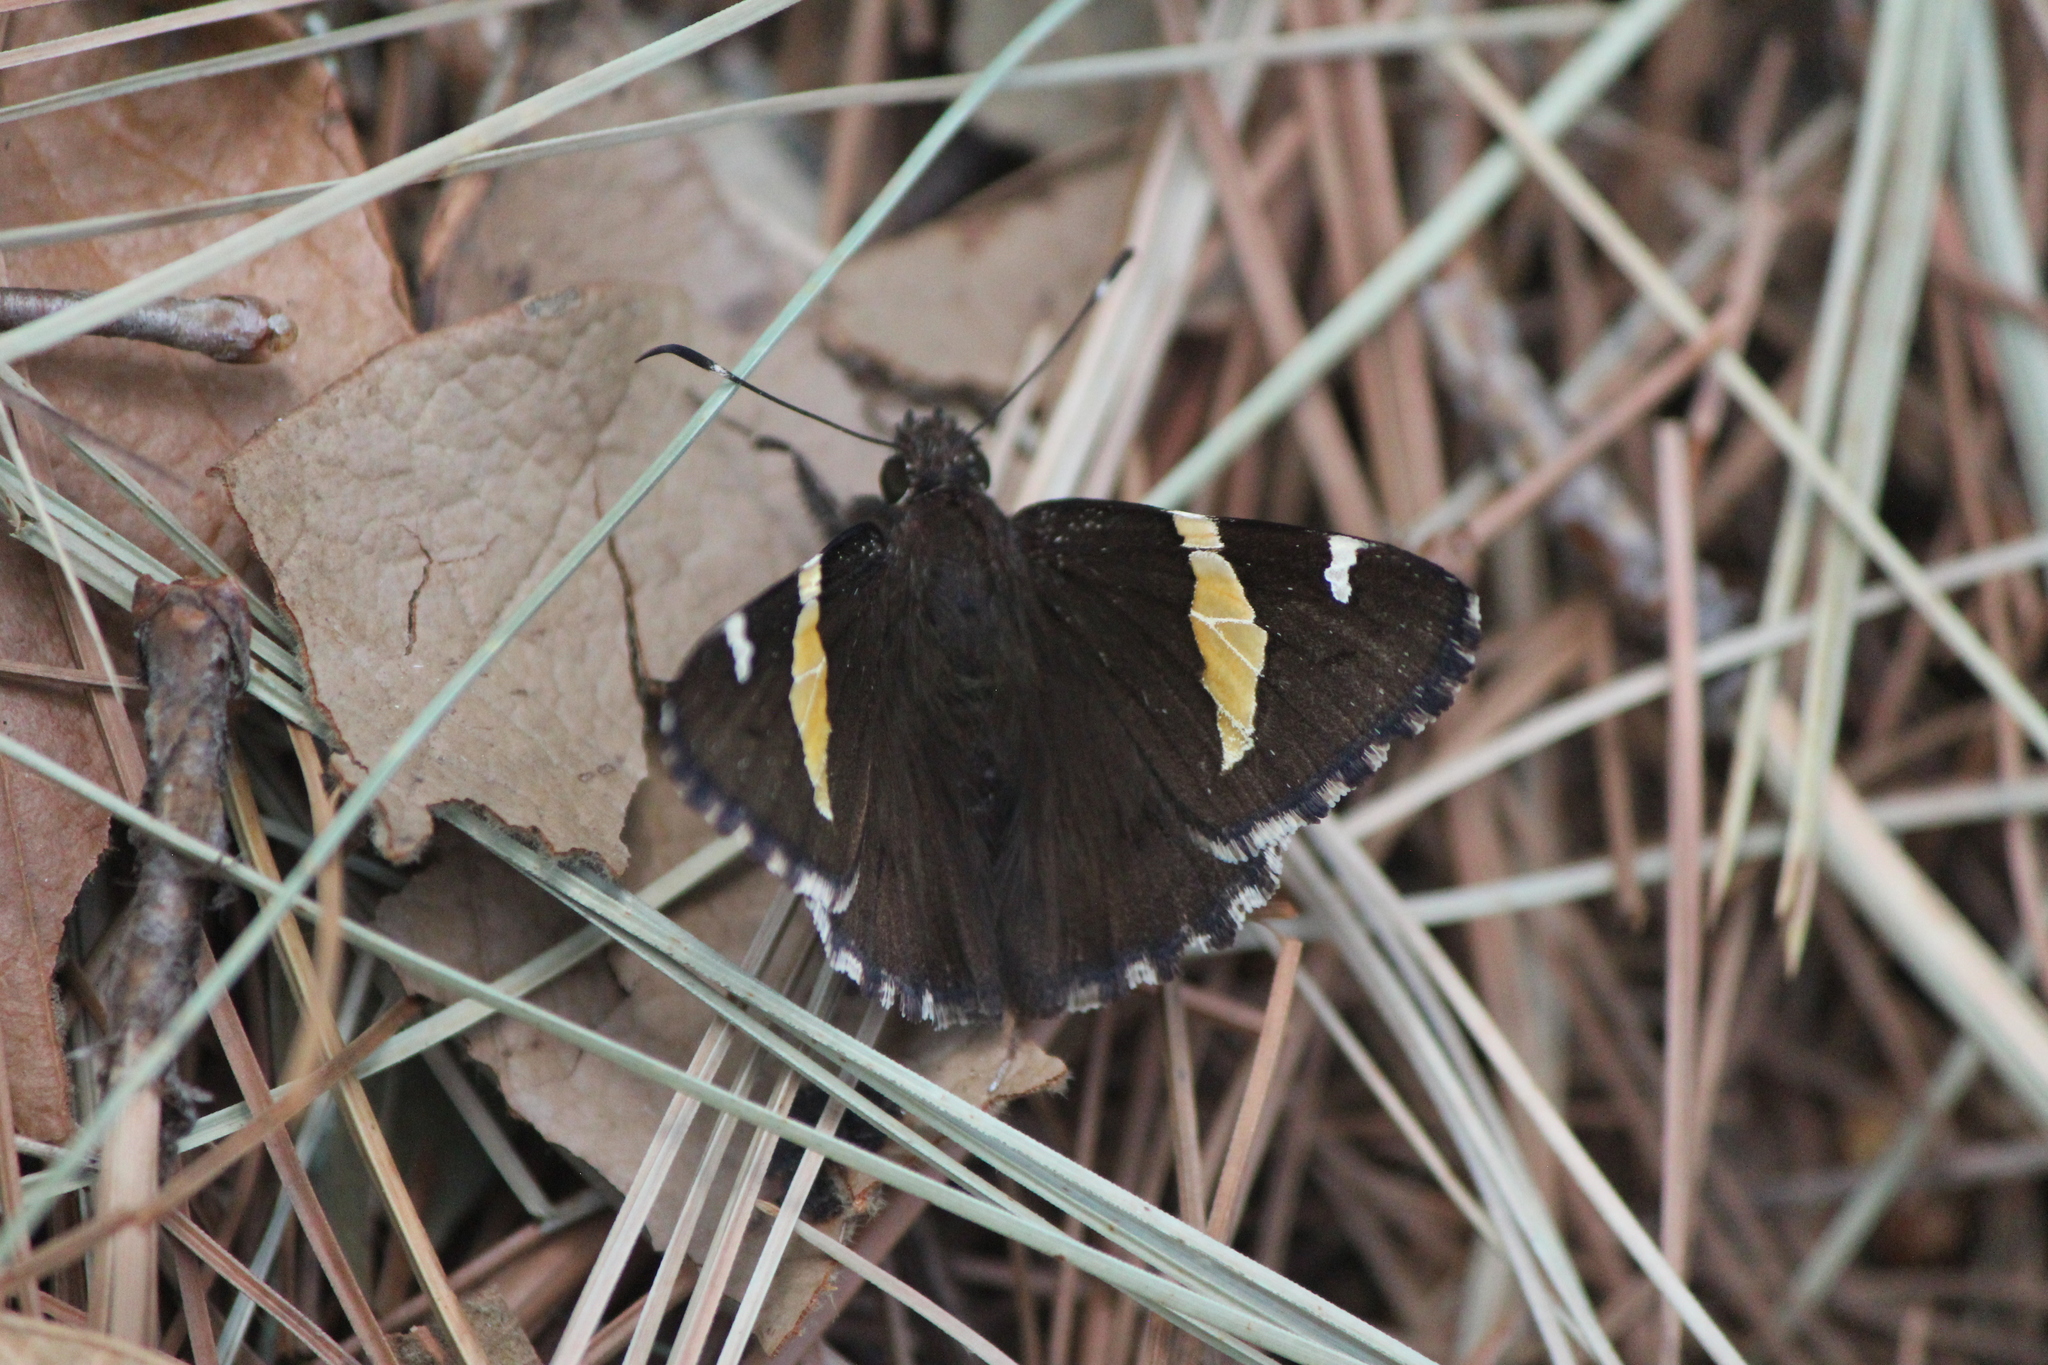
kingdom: Animalia
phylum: Arthropoda
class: Insecta
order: Lepidoptera
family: Hesperiidae
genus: Thorybes
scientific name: Thorybes pseudocellus
